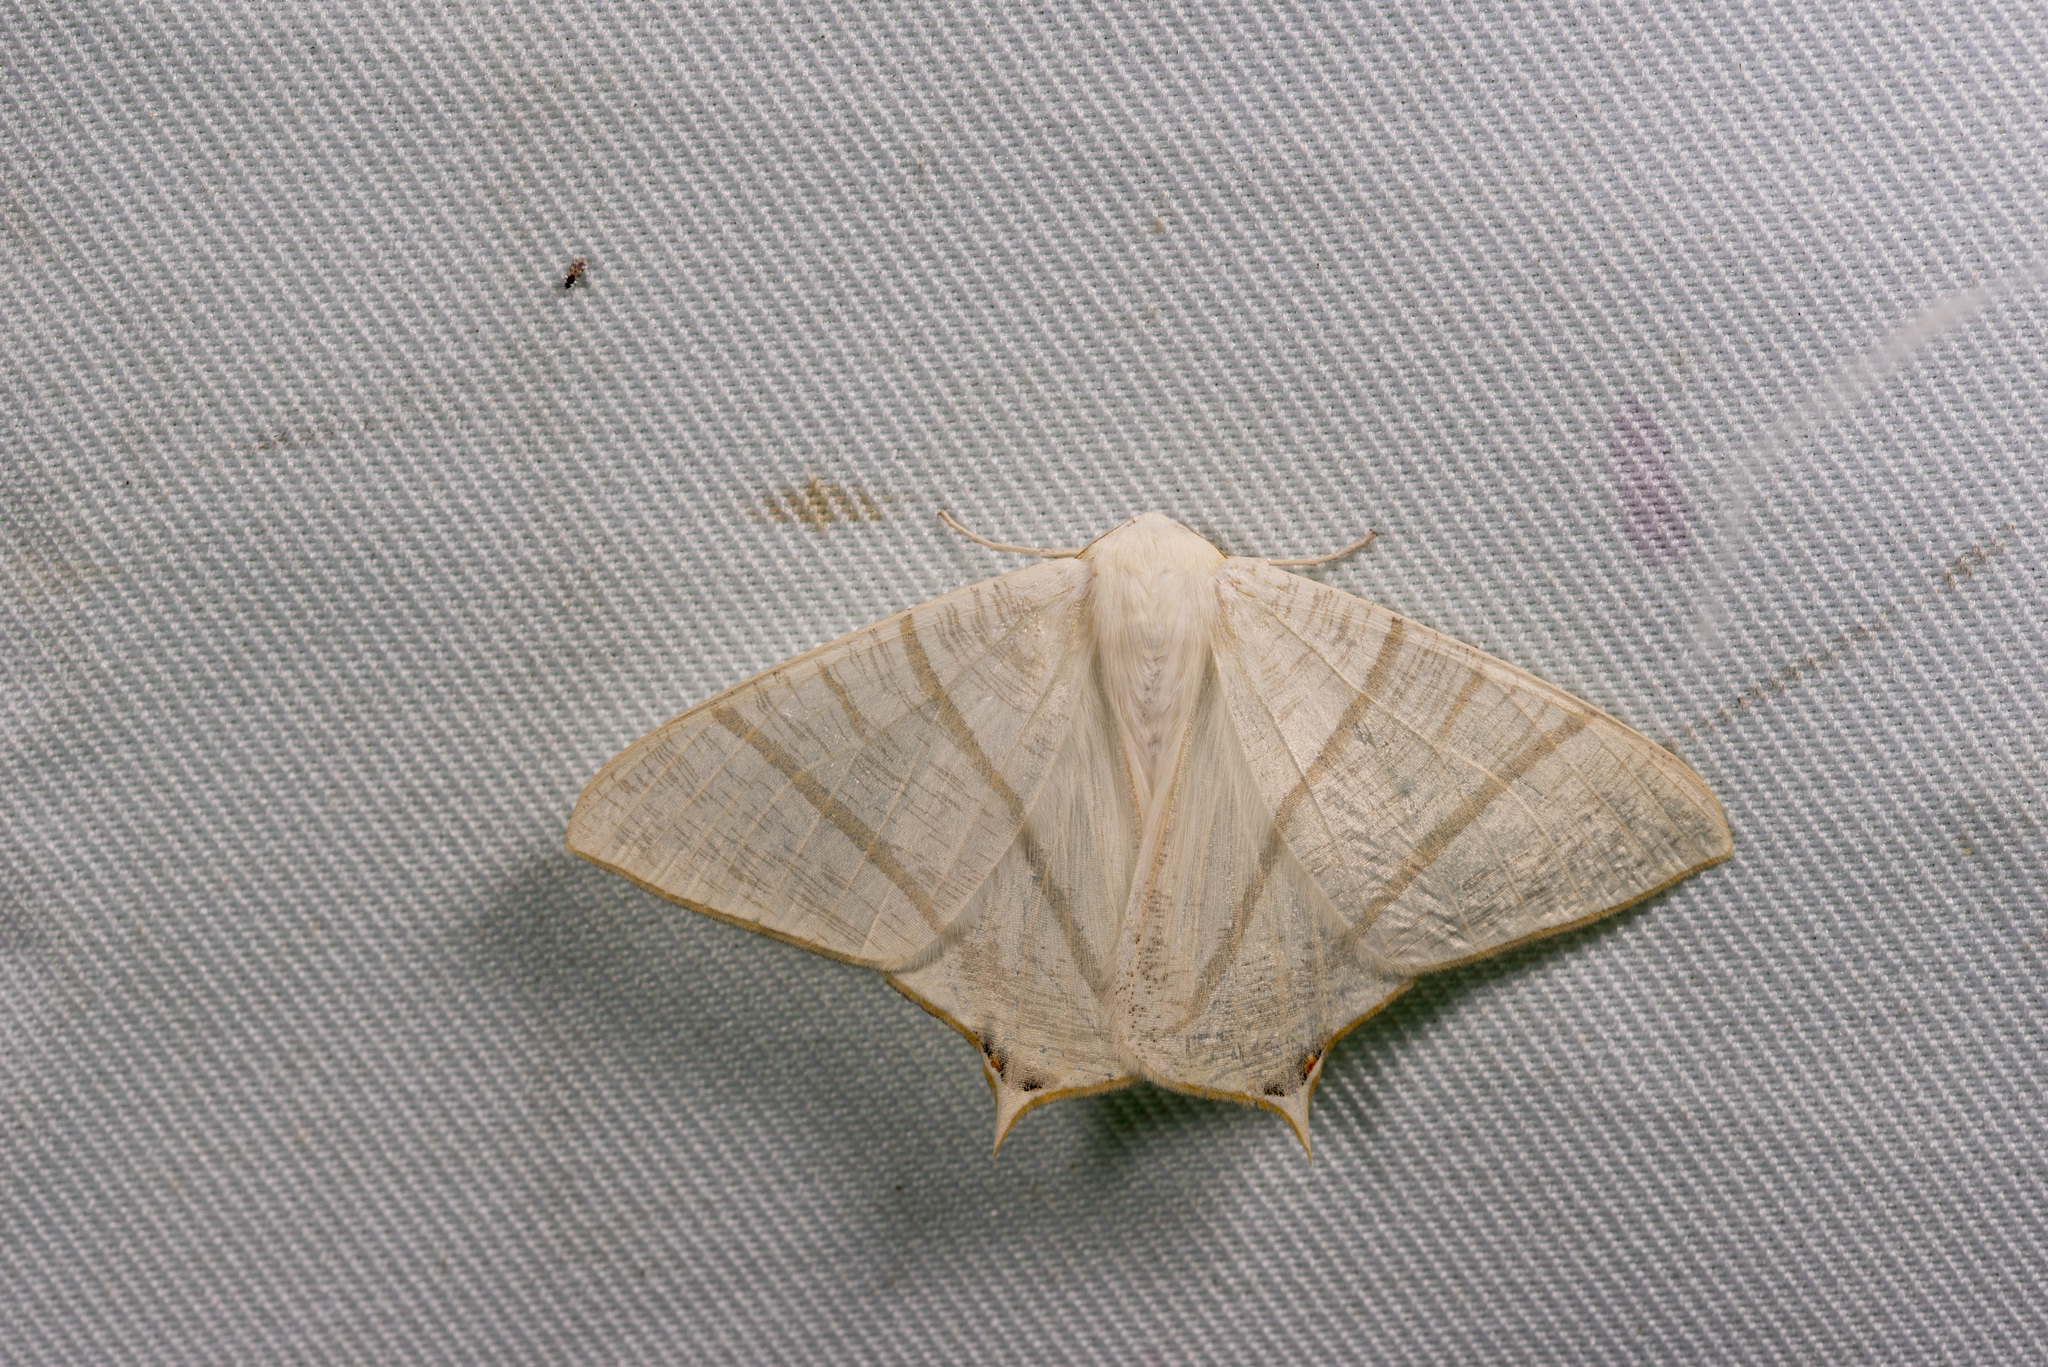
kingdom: Animalia
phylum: Arthropoda
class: Insecta
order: Lepidoptera
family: Geometridae
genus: Ourapteryx
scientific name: Ourapteryx pallidula
